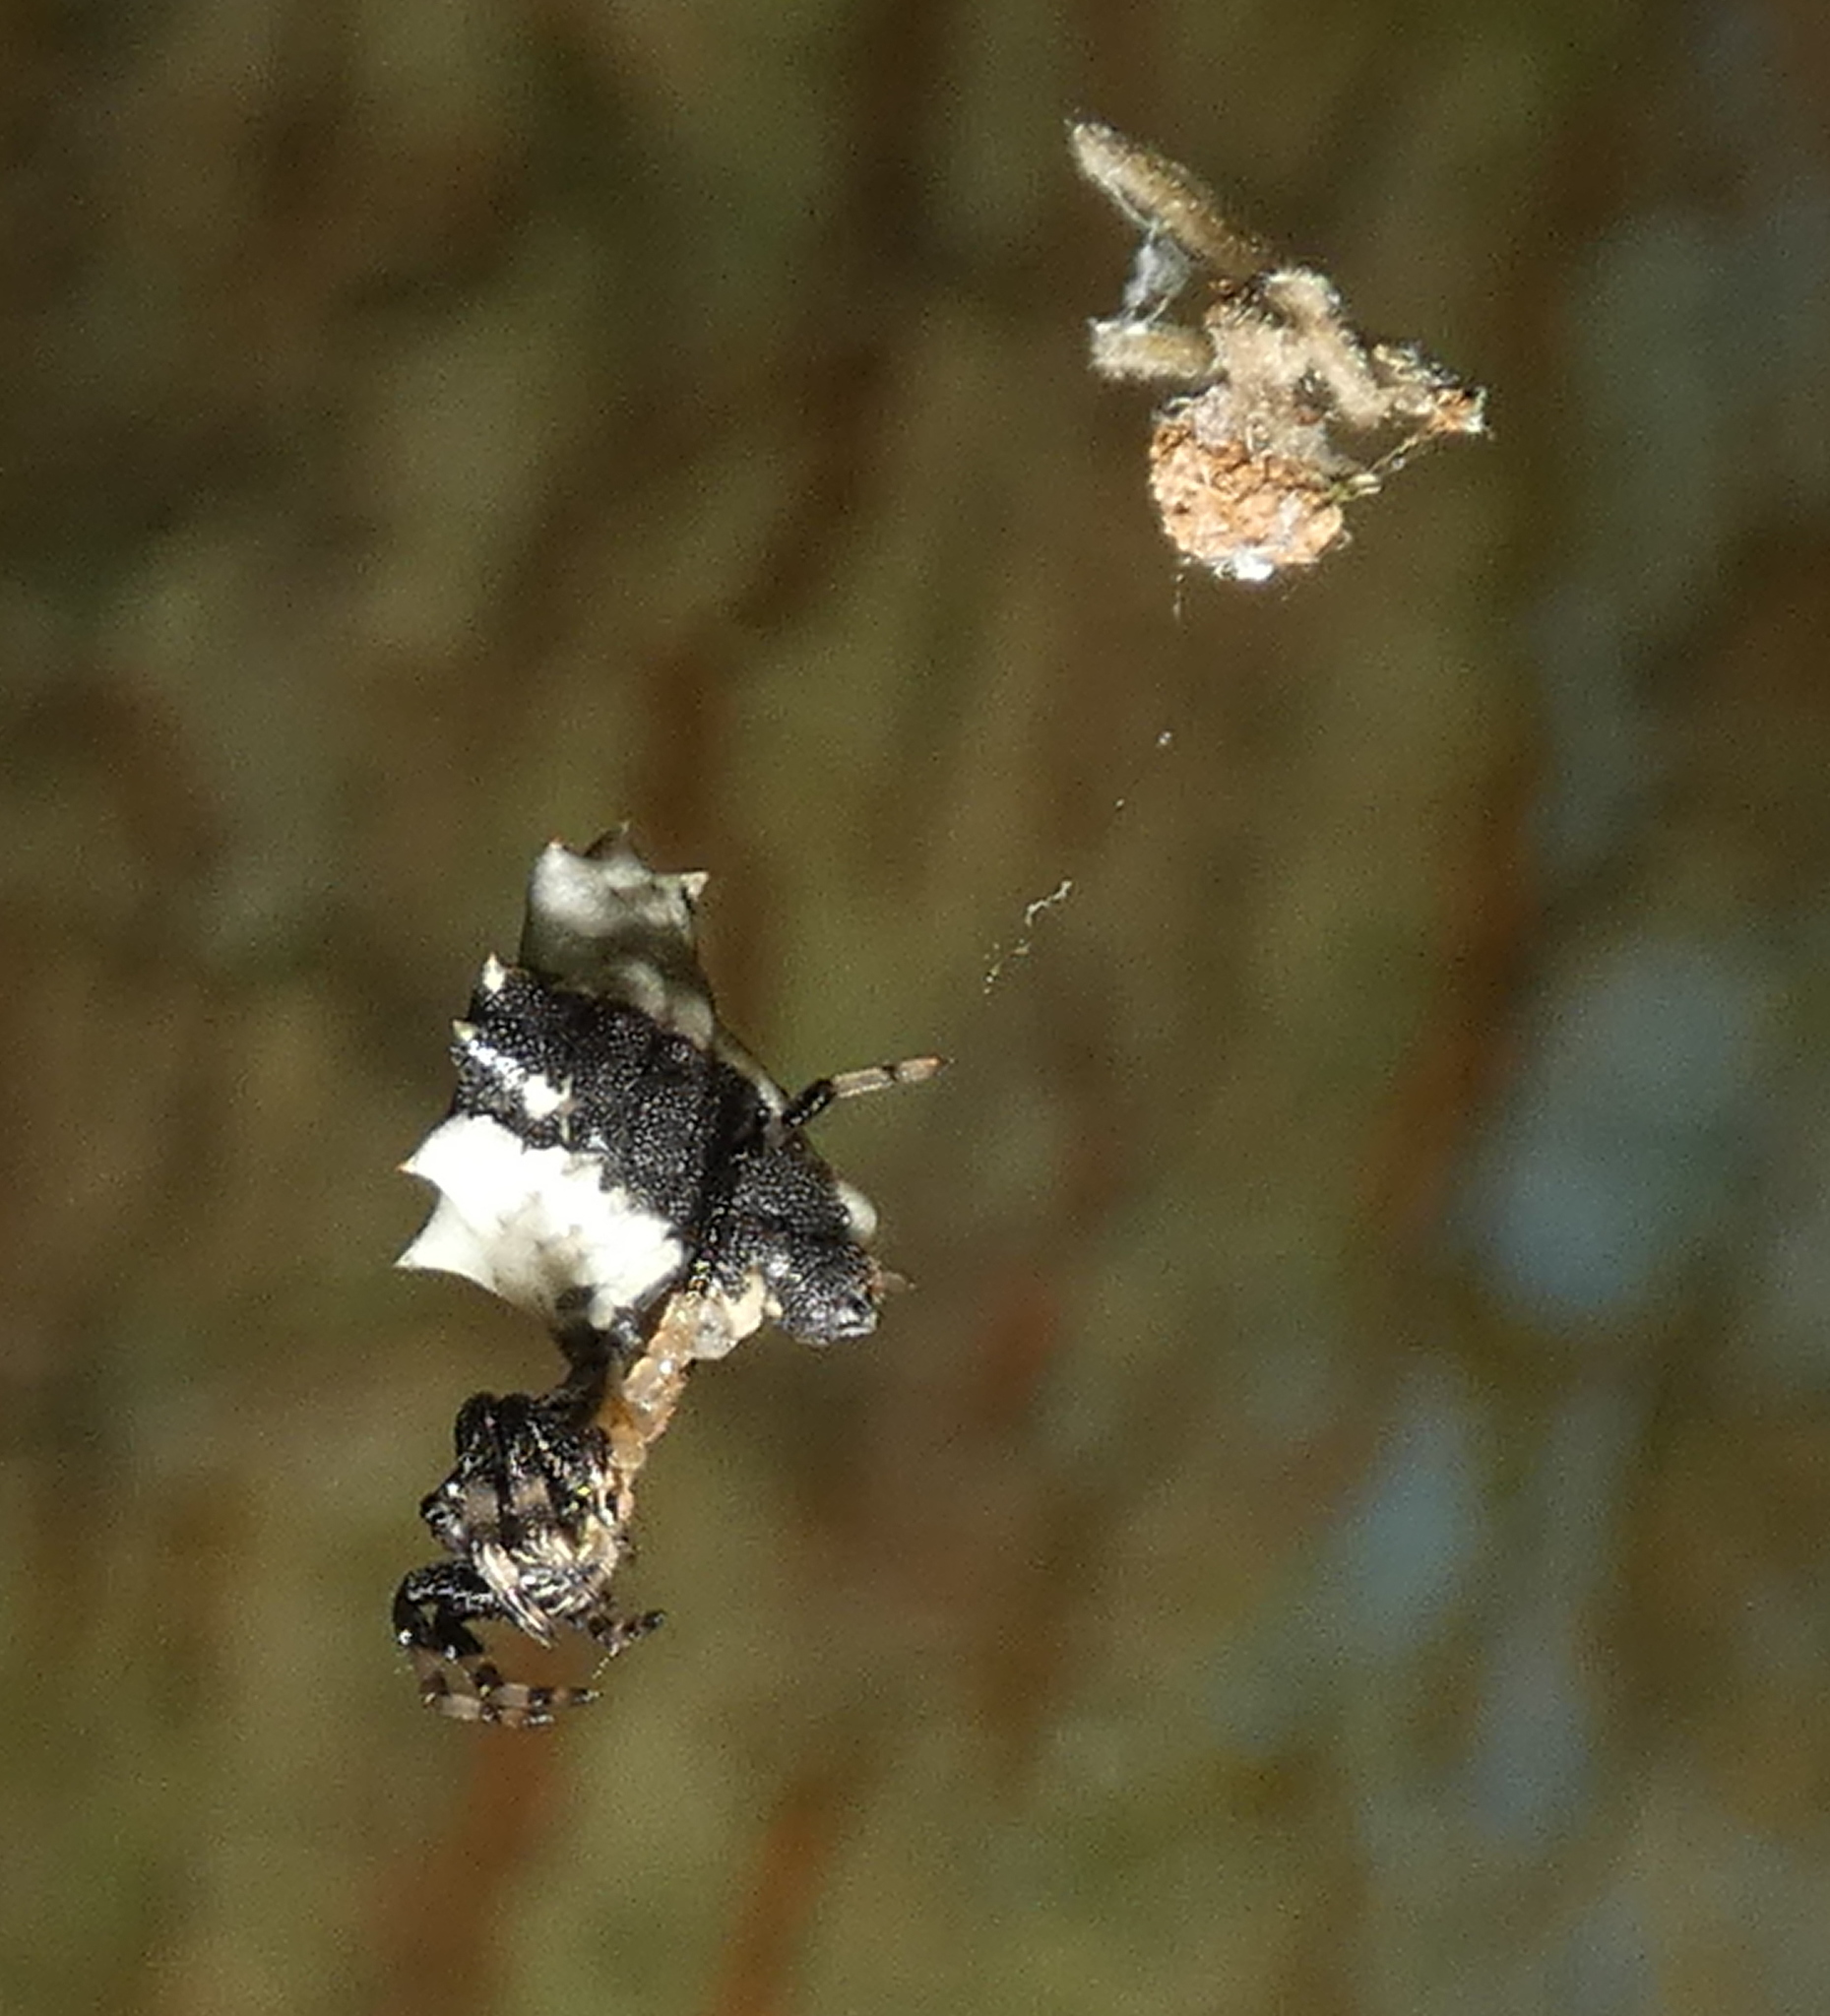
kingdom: Animalia
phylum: Arthropoda
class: Arachnida
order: Araneae
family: Araneidae
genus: Micrathena
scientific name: Micrathena horrida
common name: Orb weavers
